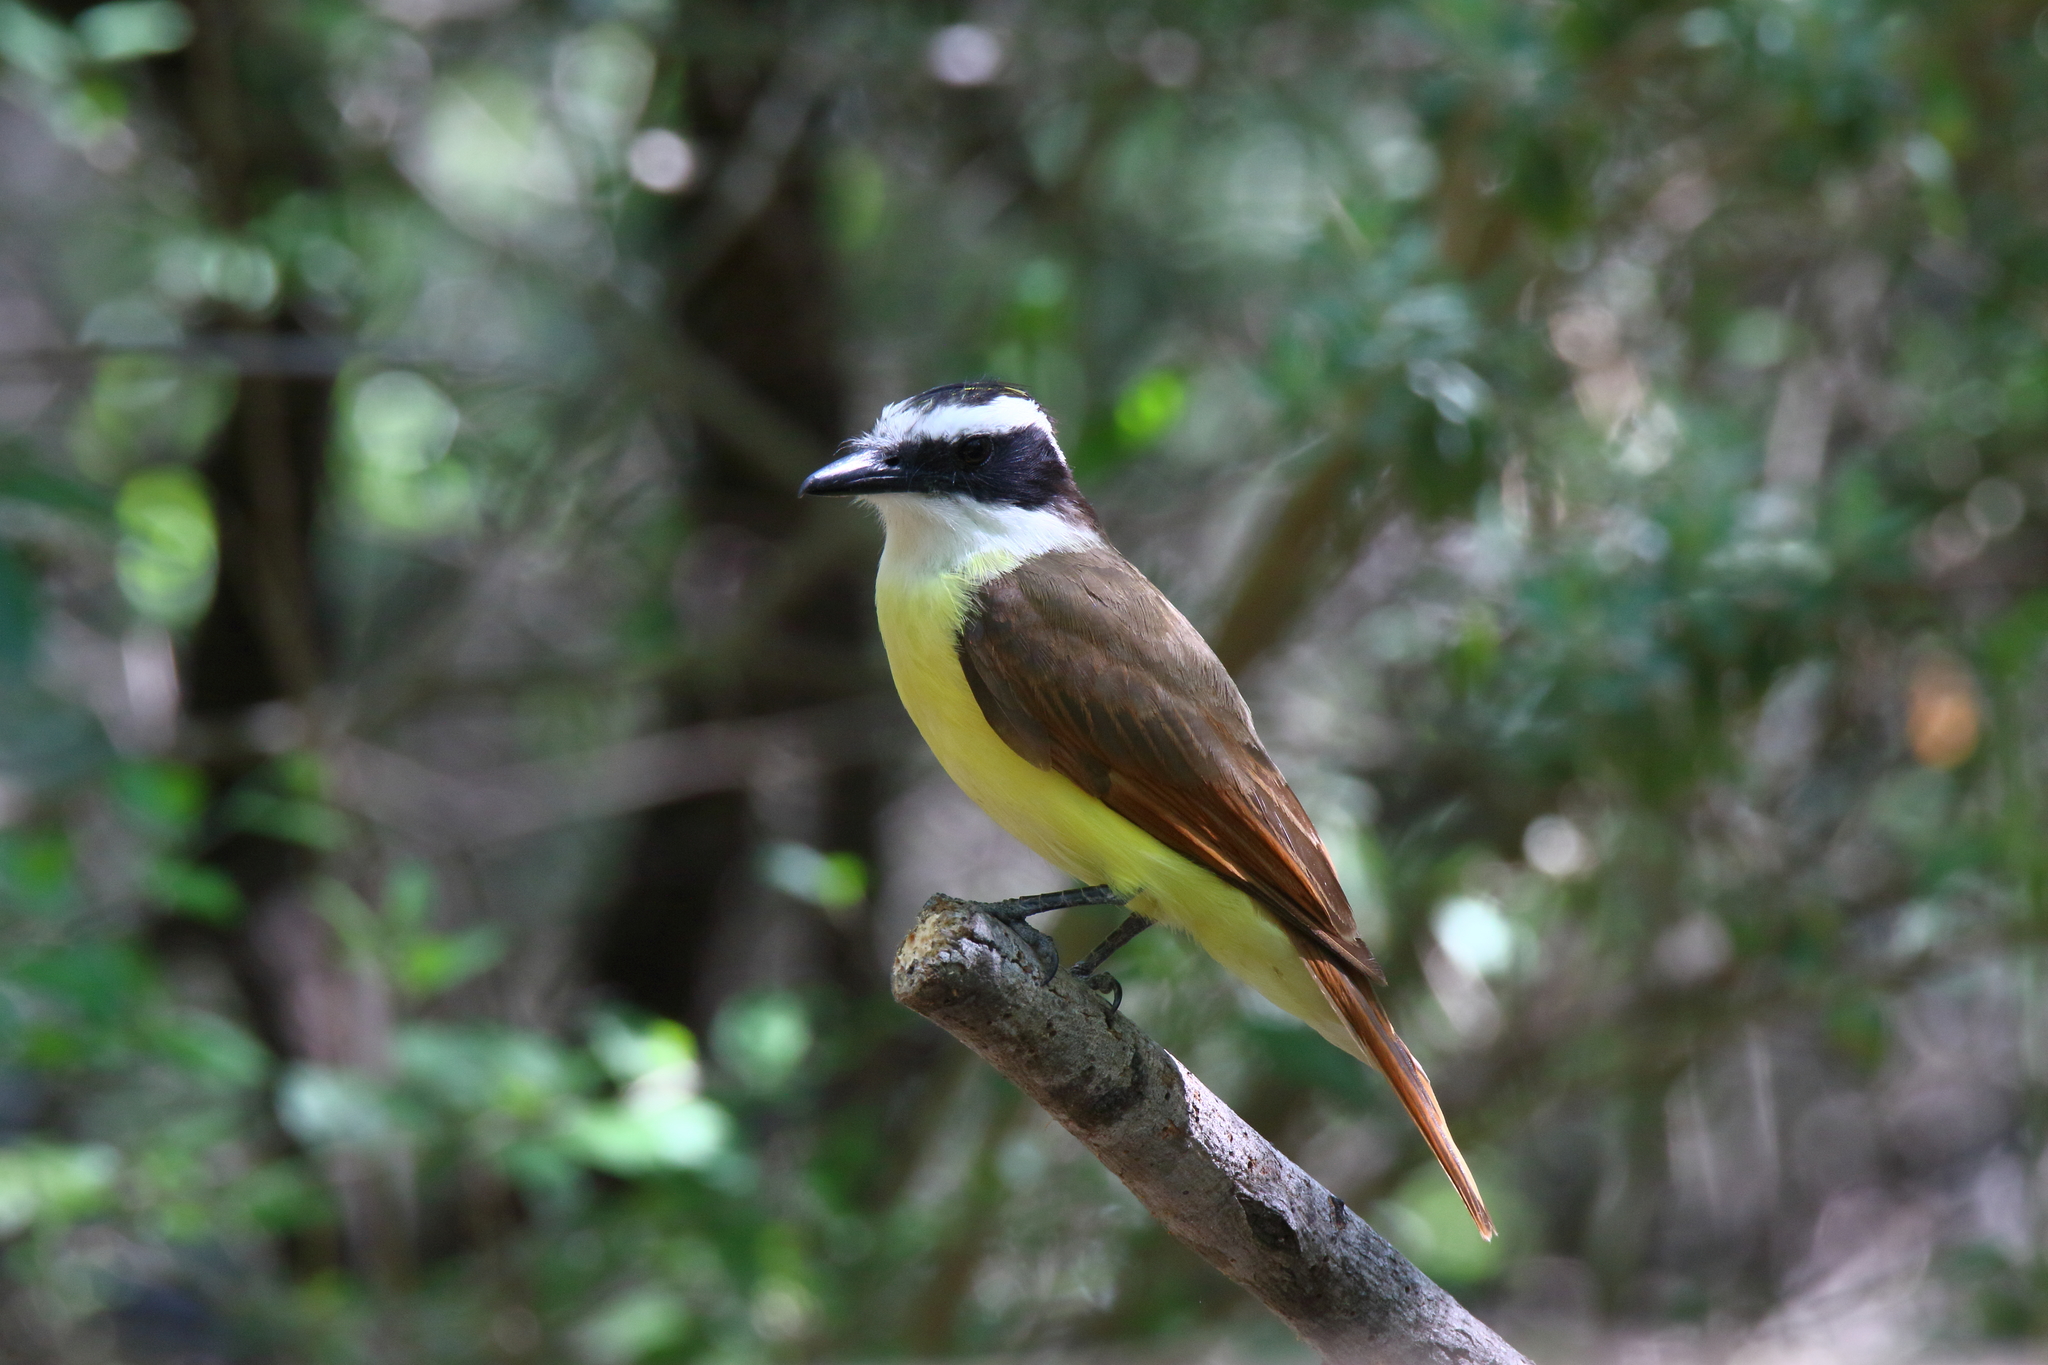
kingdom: Animalia
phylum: Chordata
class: Aves
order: Passeriformes
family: Tyrannidae
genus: Pitangus
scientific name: Pitangus sulphuratus
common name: Great kiskadee
